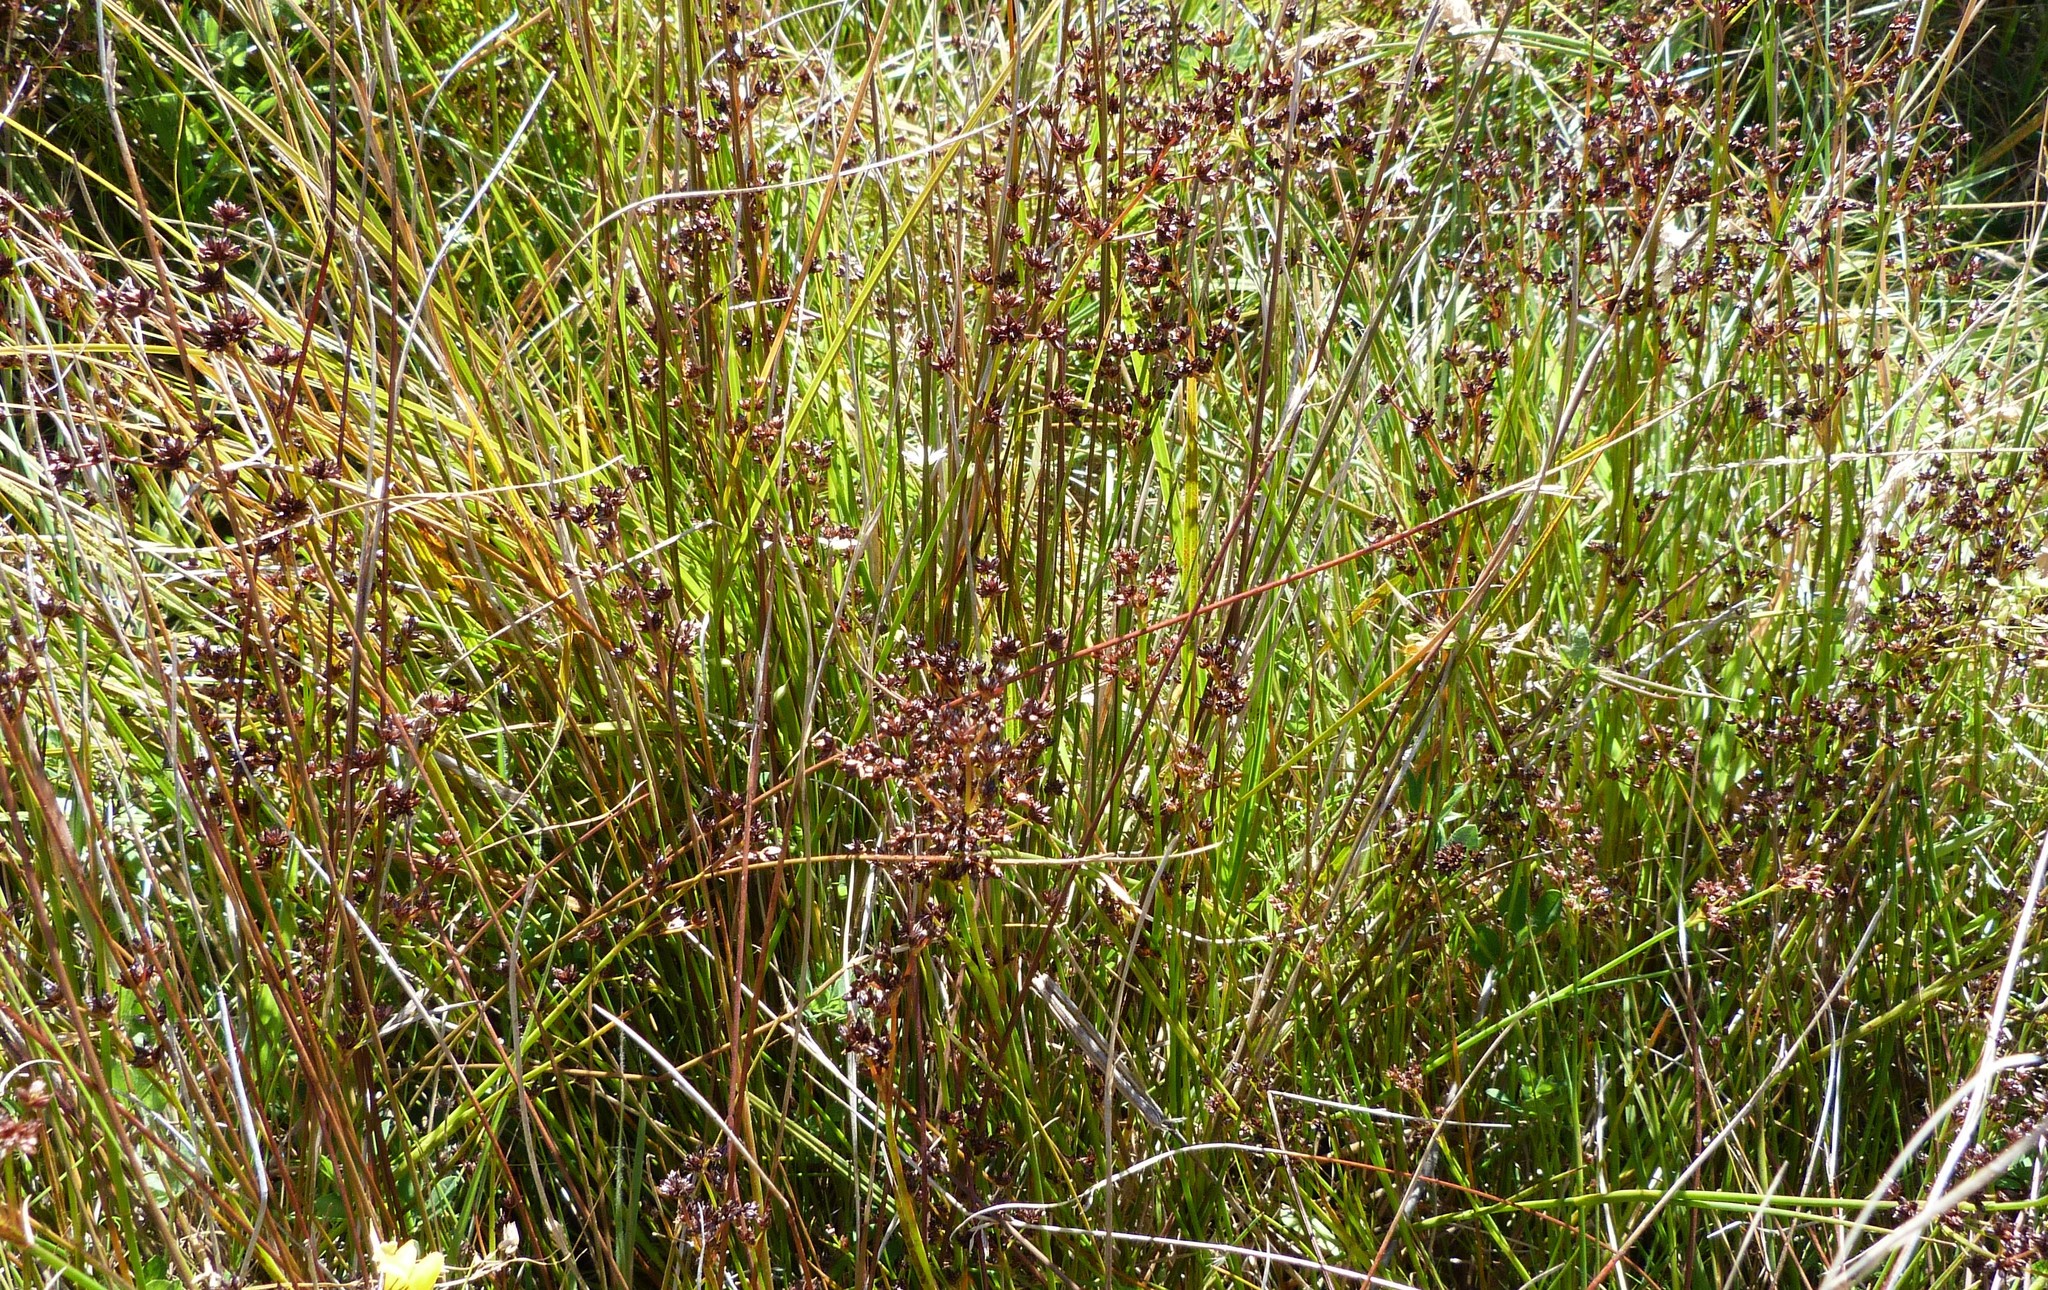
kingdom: Plantae
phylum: Tracheophyta
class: Liliopsida
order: Poales
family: Juncaceae
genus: Juncus
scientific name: Juncus articulatus
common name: Jointed rush
